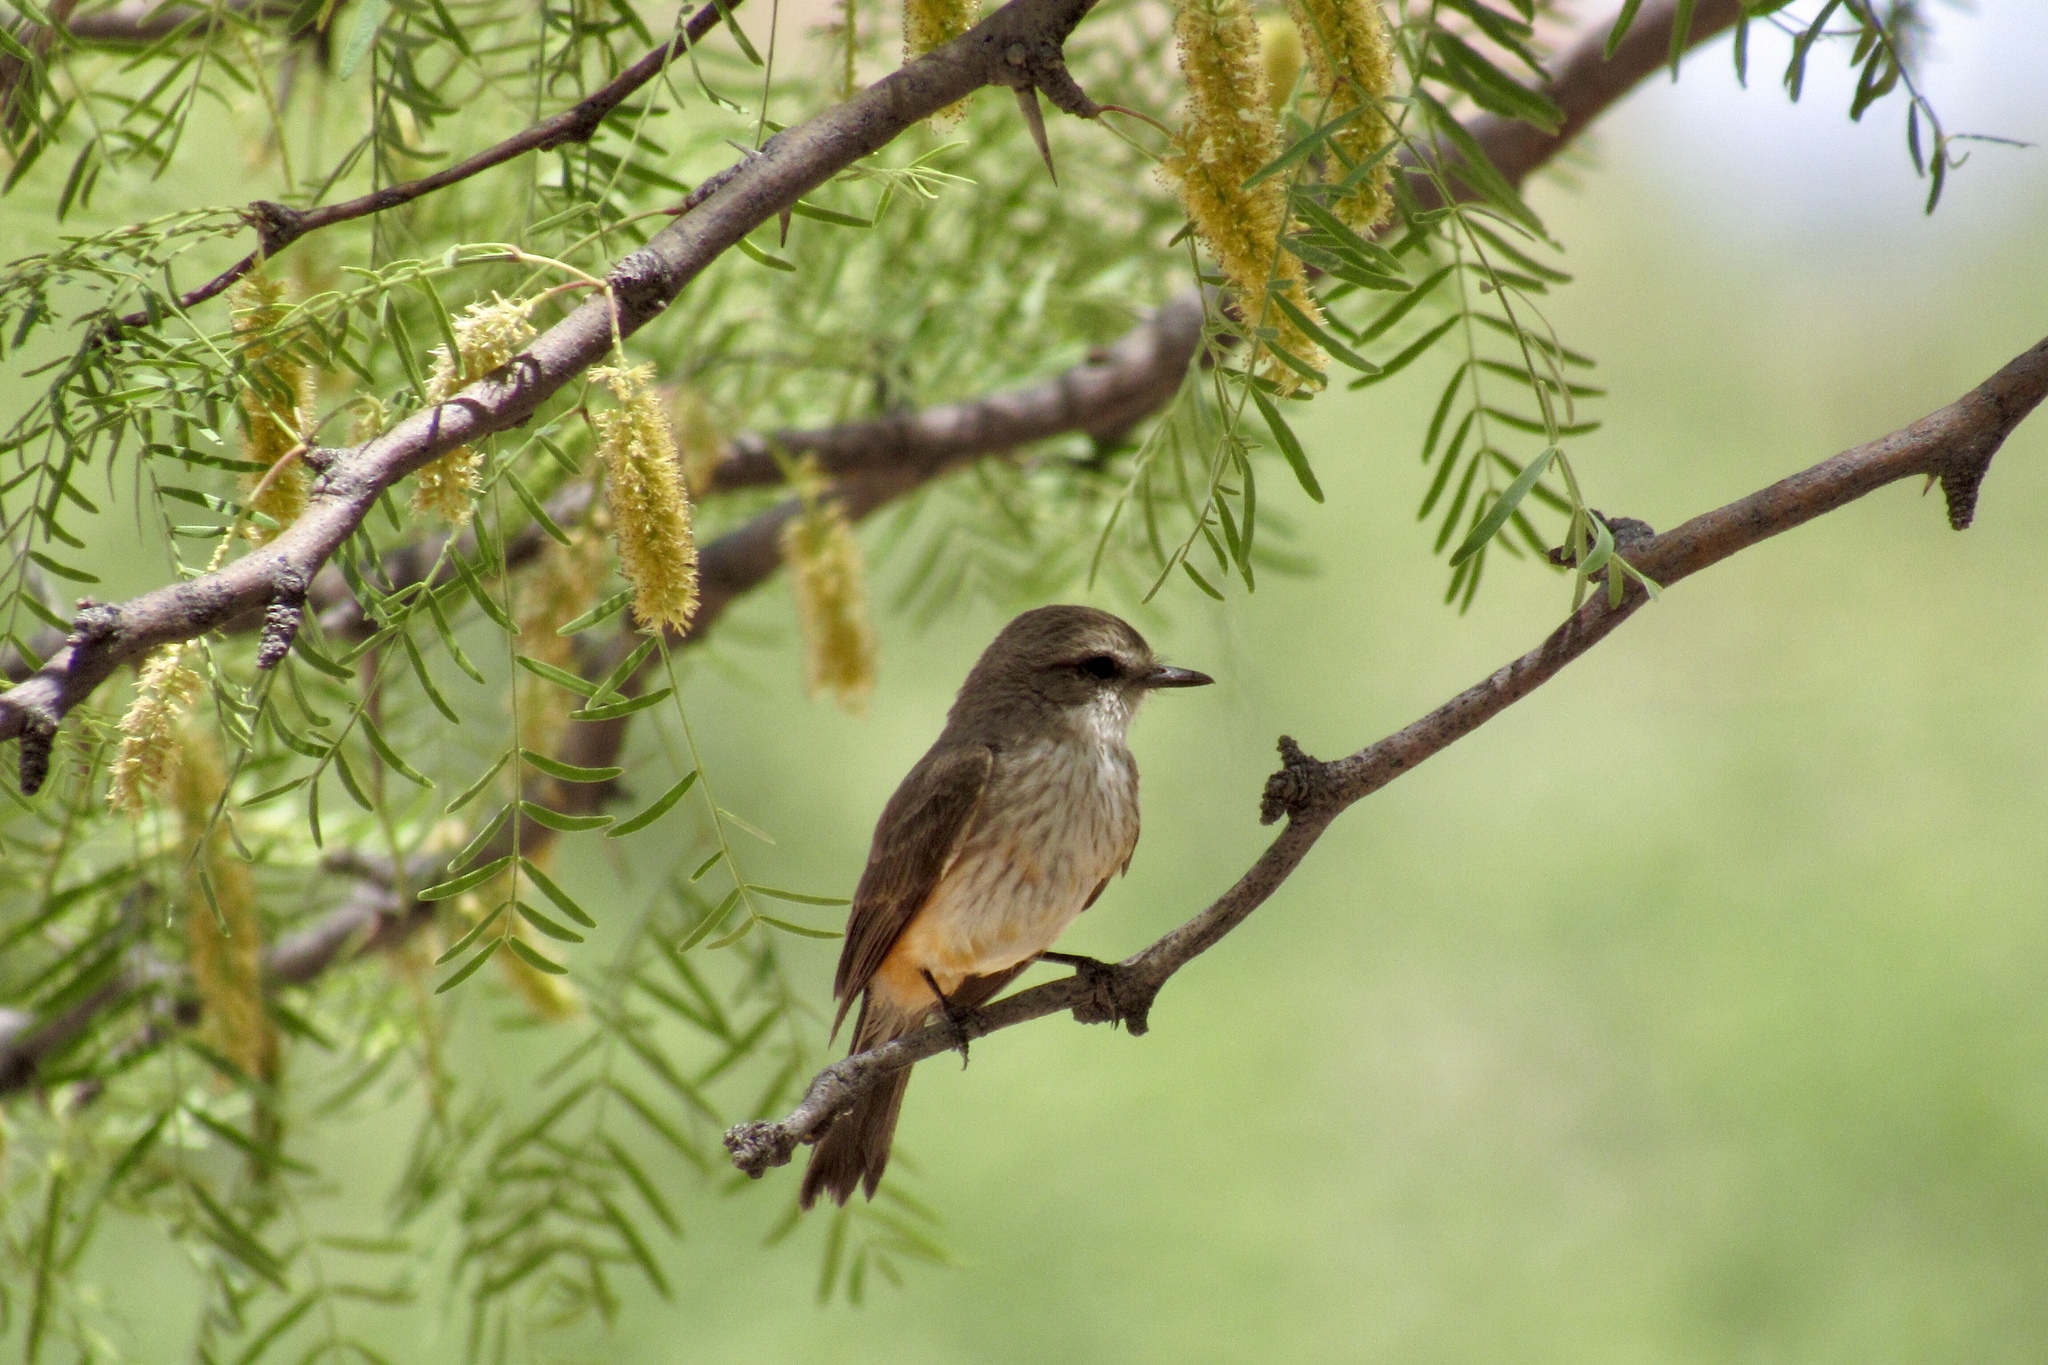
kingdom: Animalia
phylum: Chordata
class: Aves
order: Passeriformes
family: Tyrannidae
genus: Pyrocephalus
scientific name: Pyrocephalus rubinus
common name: Vermilion flycatcher
